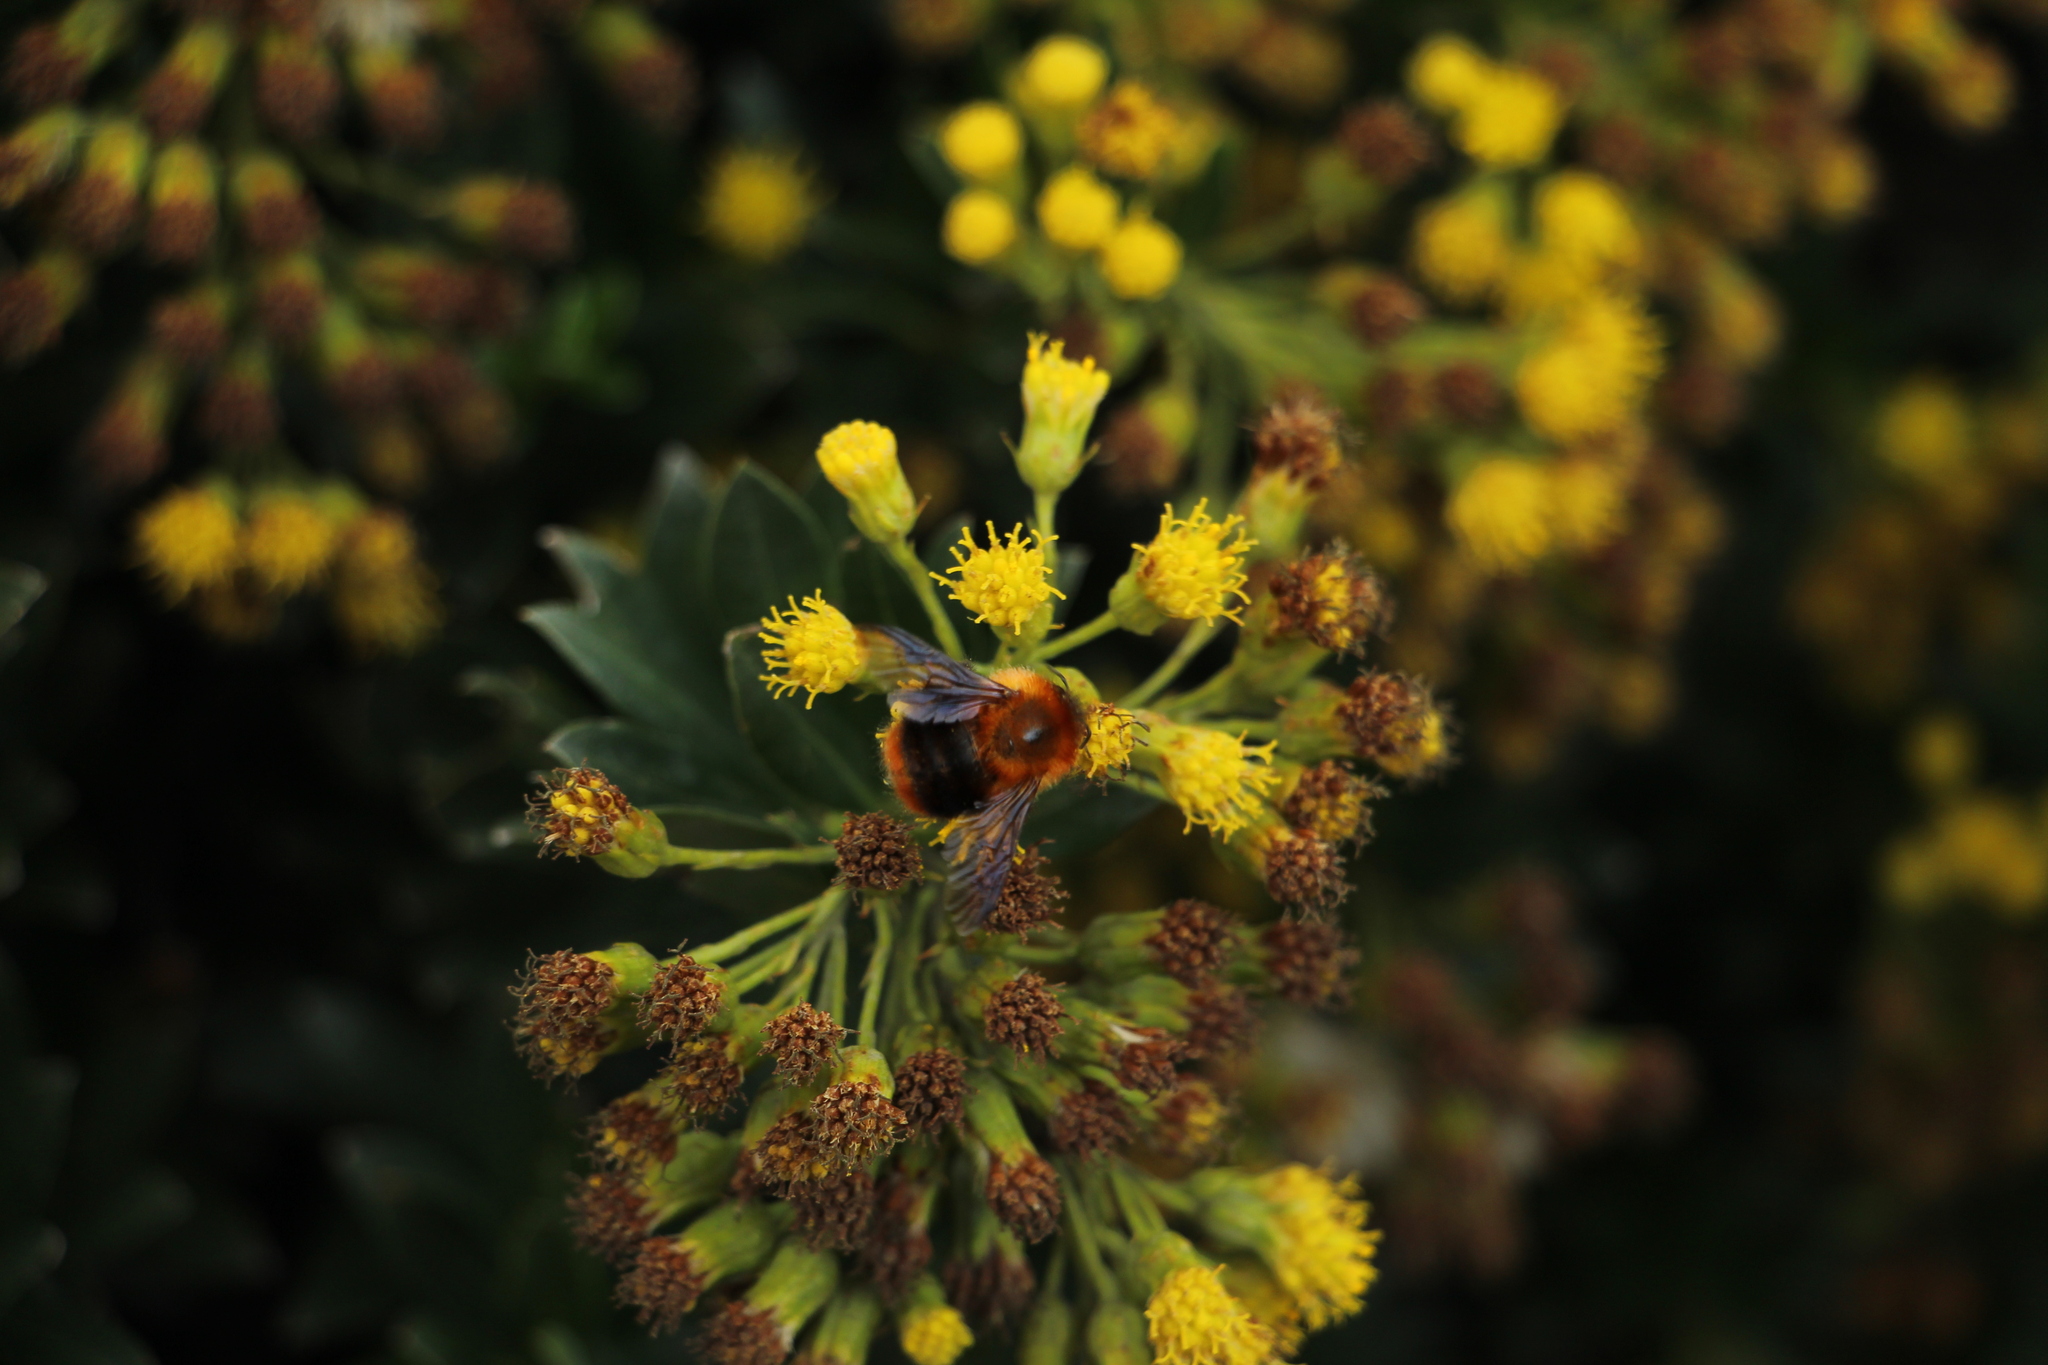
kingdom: Animalia
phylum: Arthropoda
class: Insecta
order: Hymenoptera
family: Apidae
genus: Bombus
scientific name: Bombus rubicundus
